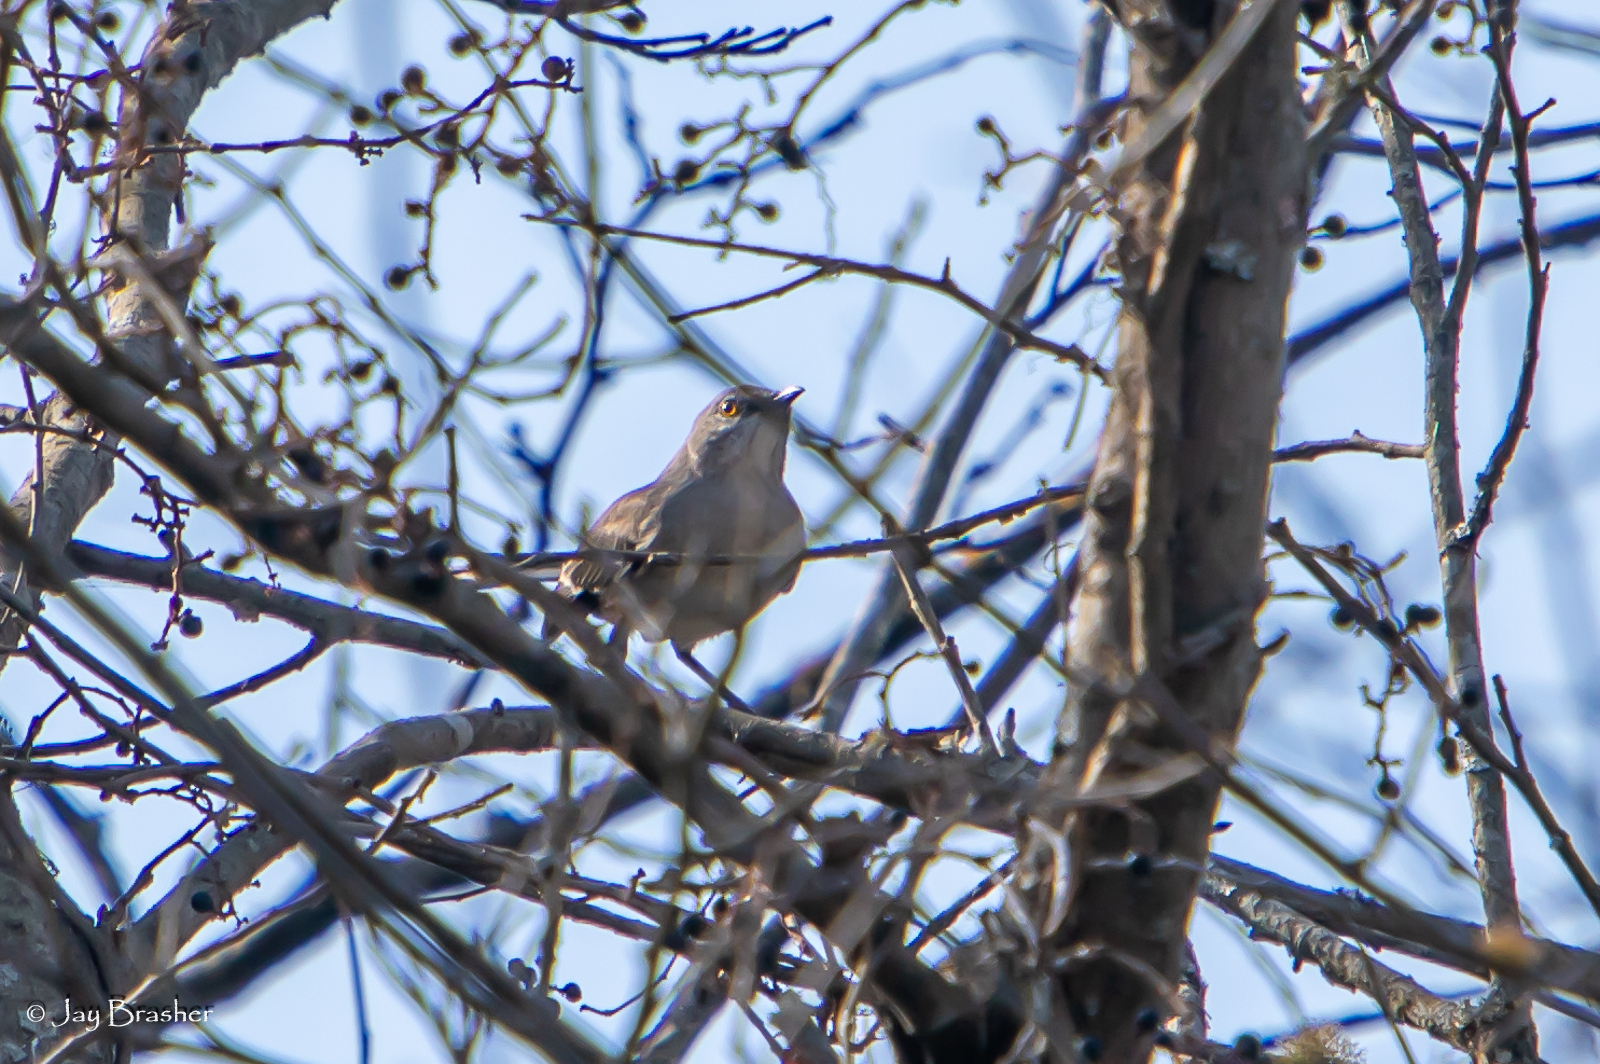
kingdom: Animalia
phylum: Chordata
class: Aves
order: Passeriformes
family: Mimidae
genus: Mimus
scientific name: Mimus polyglottos
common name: Northern mockingbird
